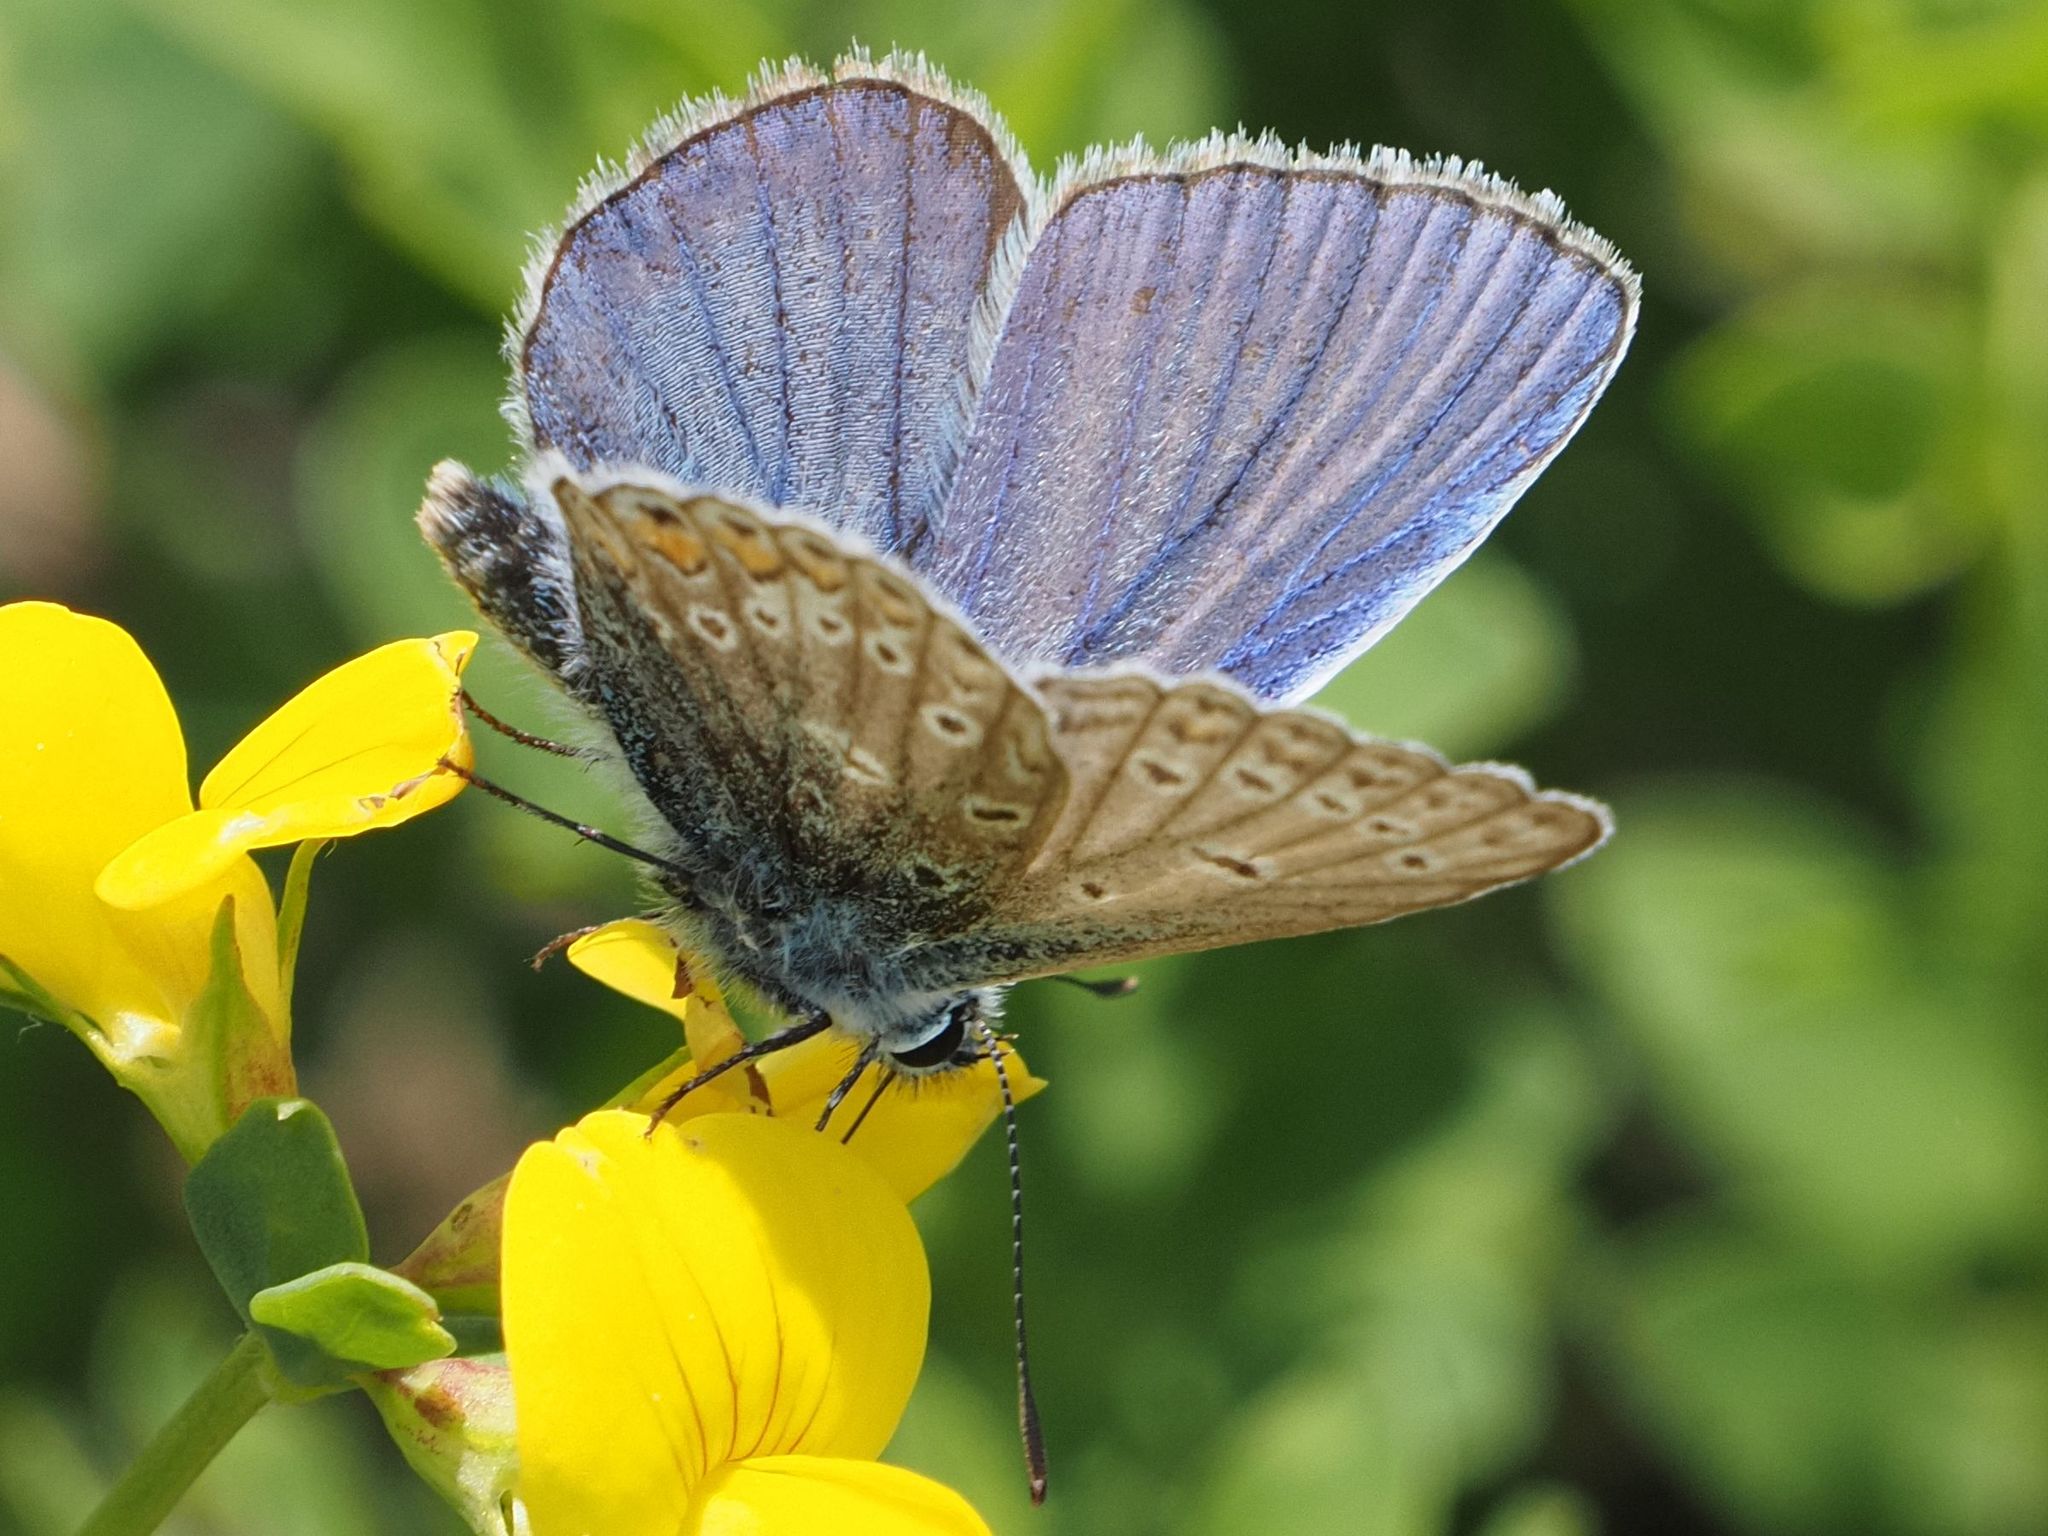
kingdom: Animalia
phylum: Arthropoda
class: Insecta
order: Lepidoptera
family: Lycaenidae
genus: Polyommatus
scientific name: Polyommatus icarus
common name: Common blue
